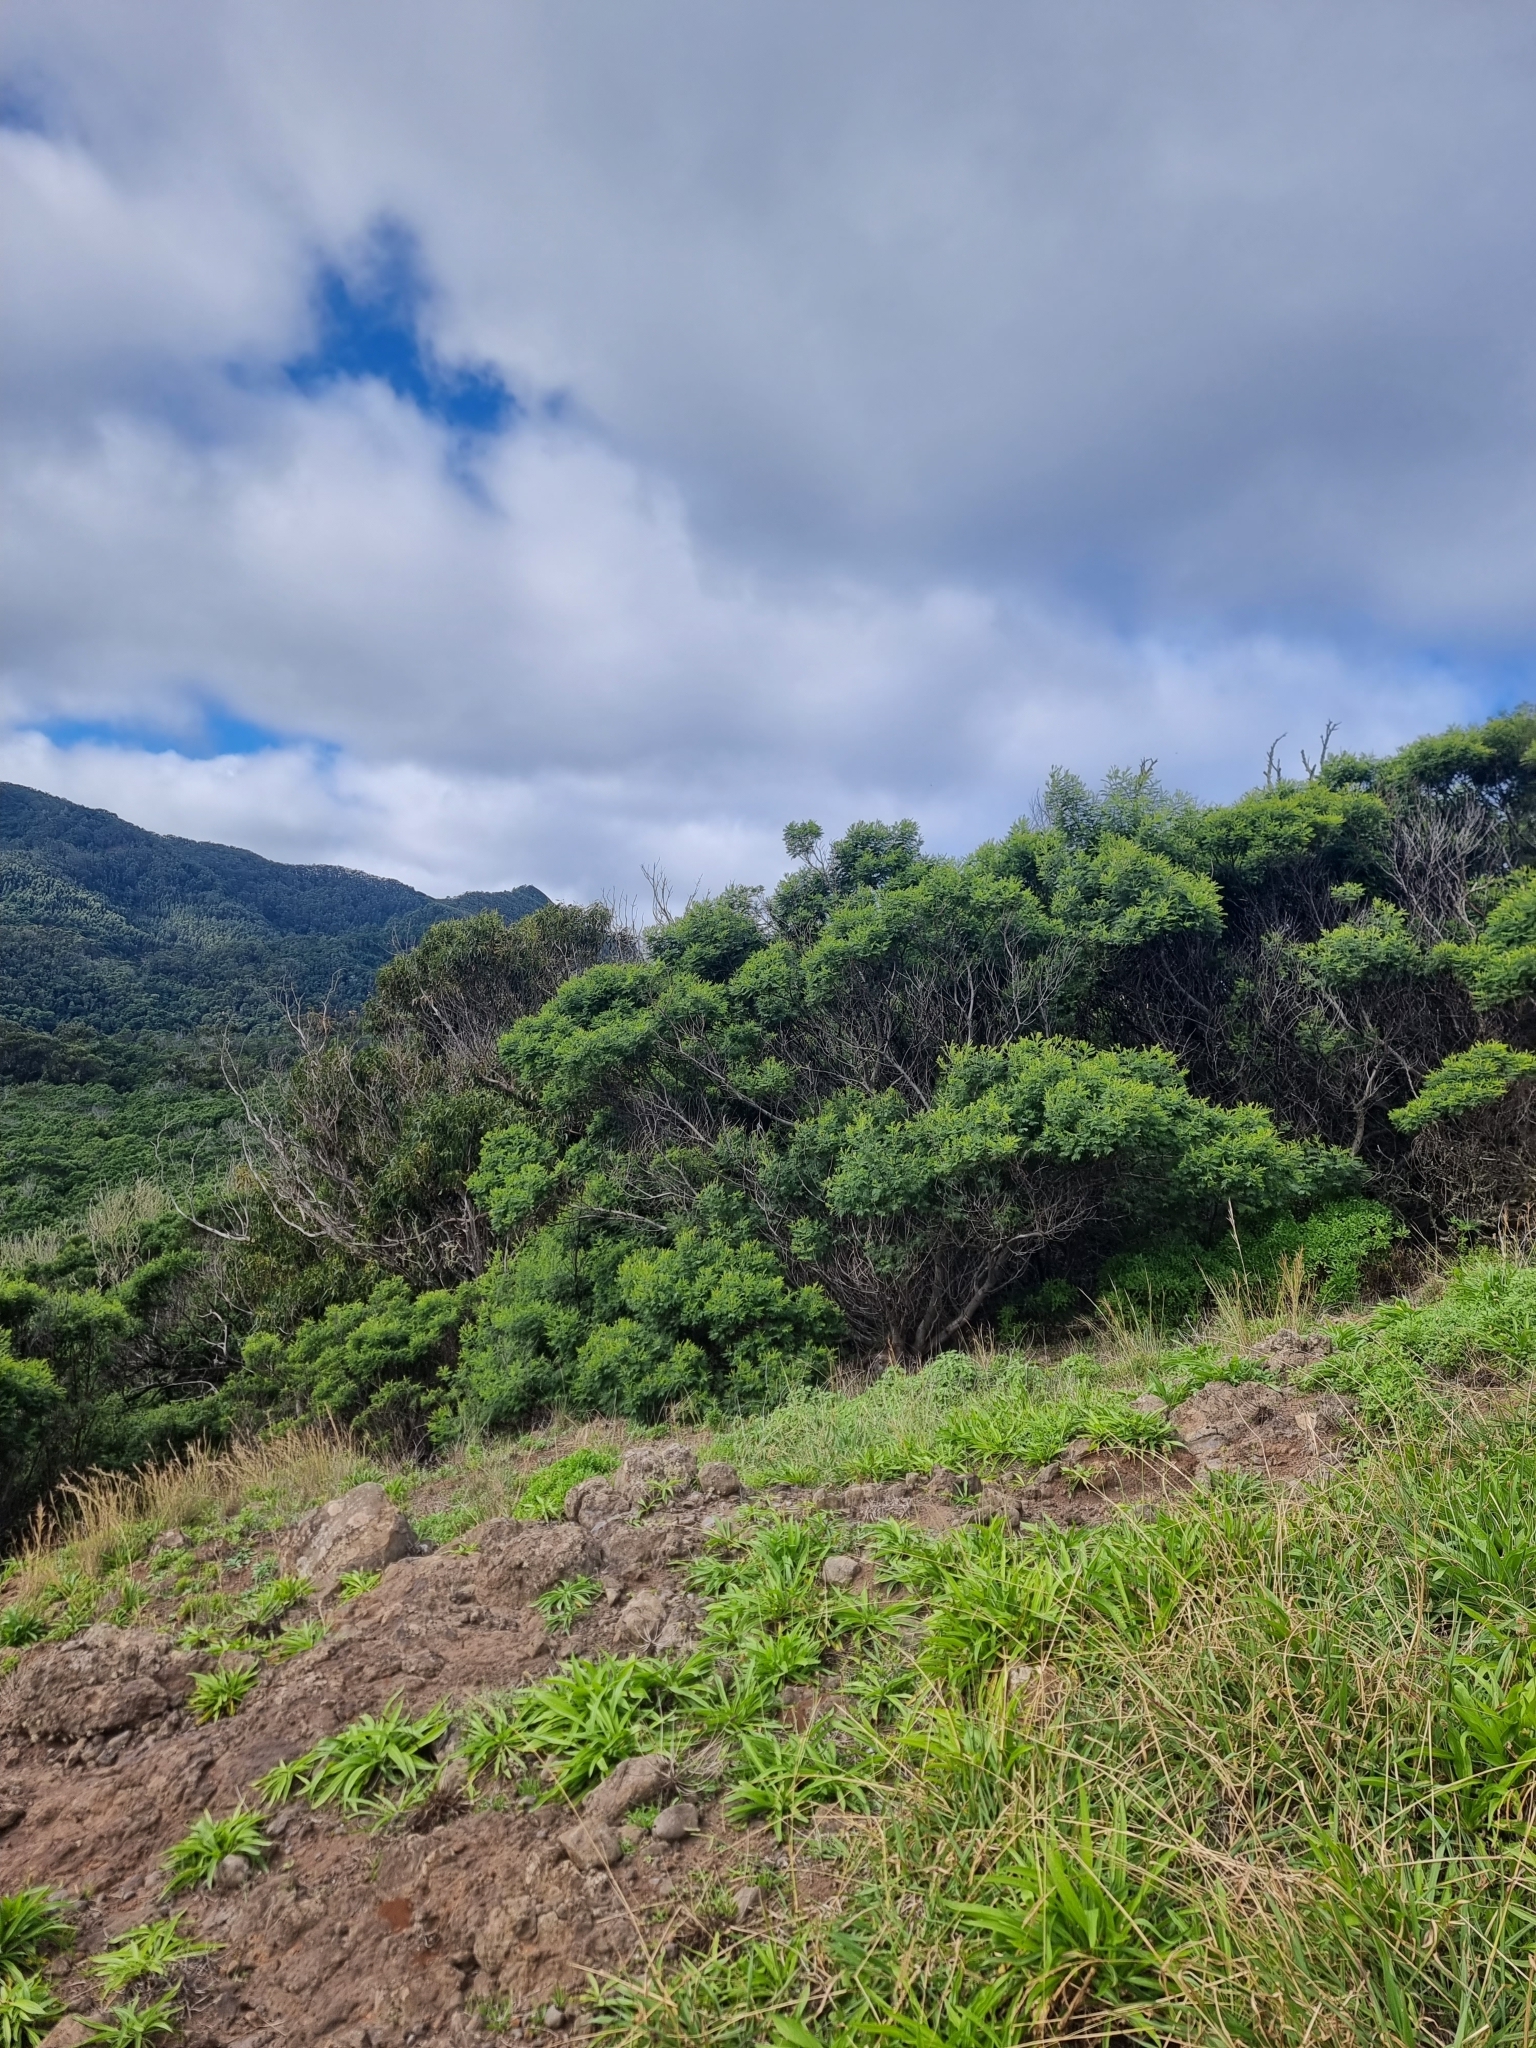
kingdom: Plantae
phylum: Tracheophyta
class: Magnoliopsida
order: Fabales
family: Fabaceae
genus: Acacia
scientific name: Acacia mearnsii
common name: Black wattle
